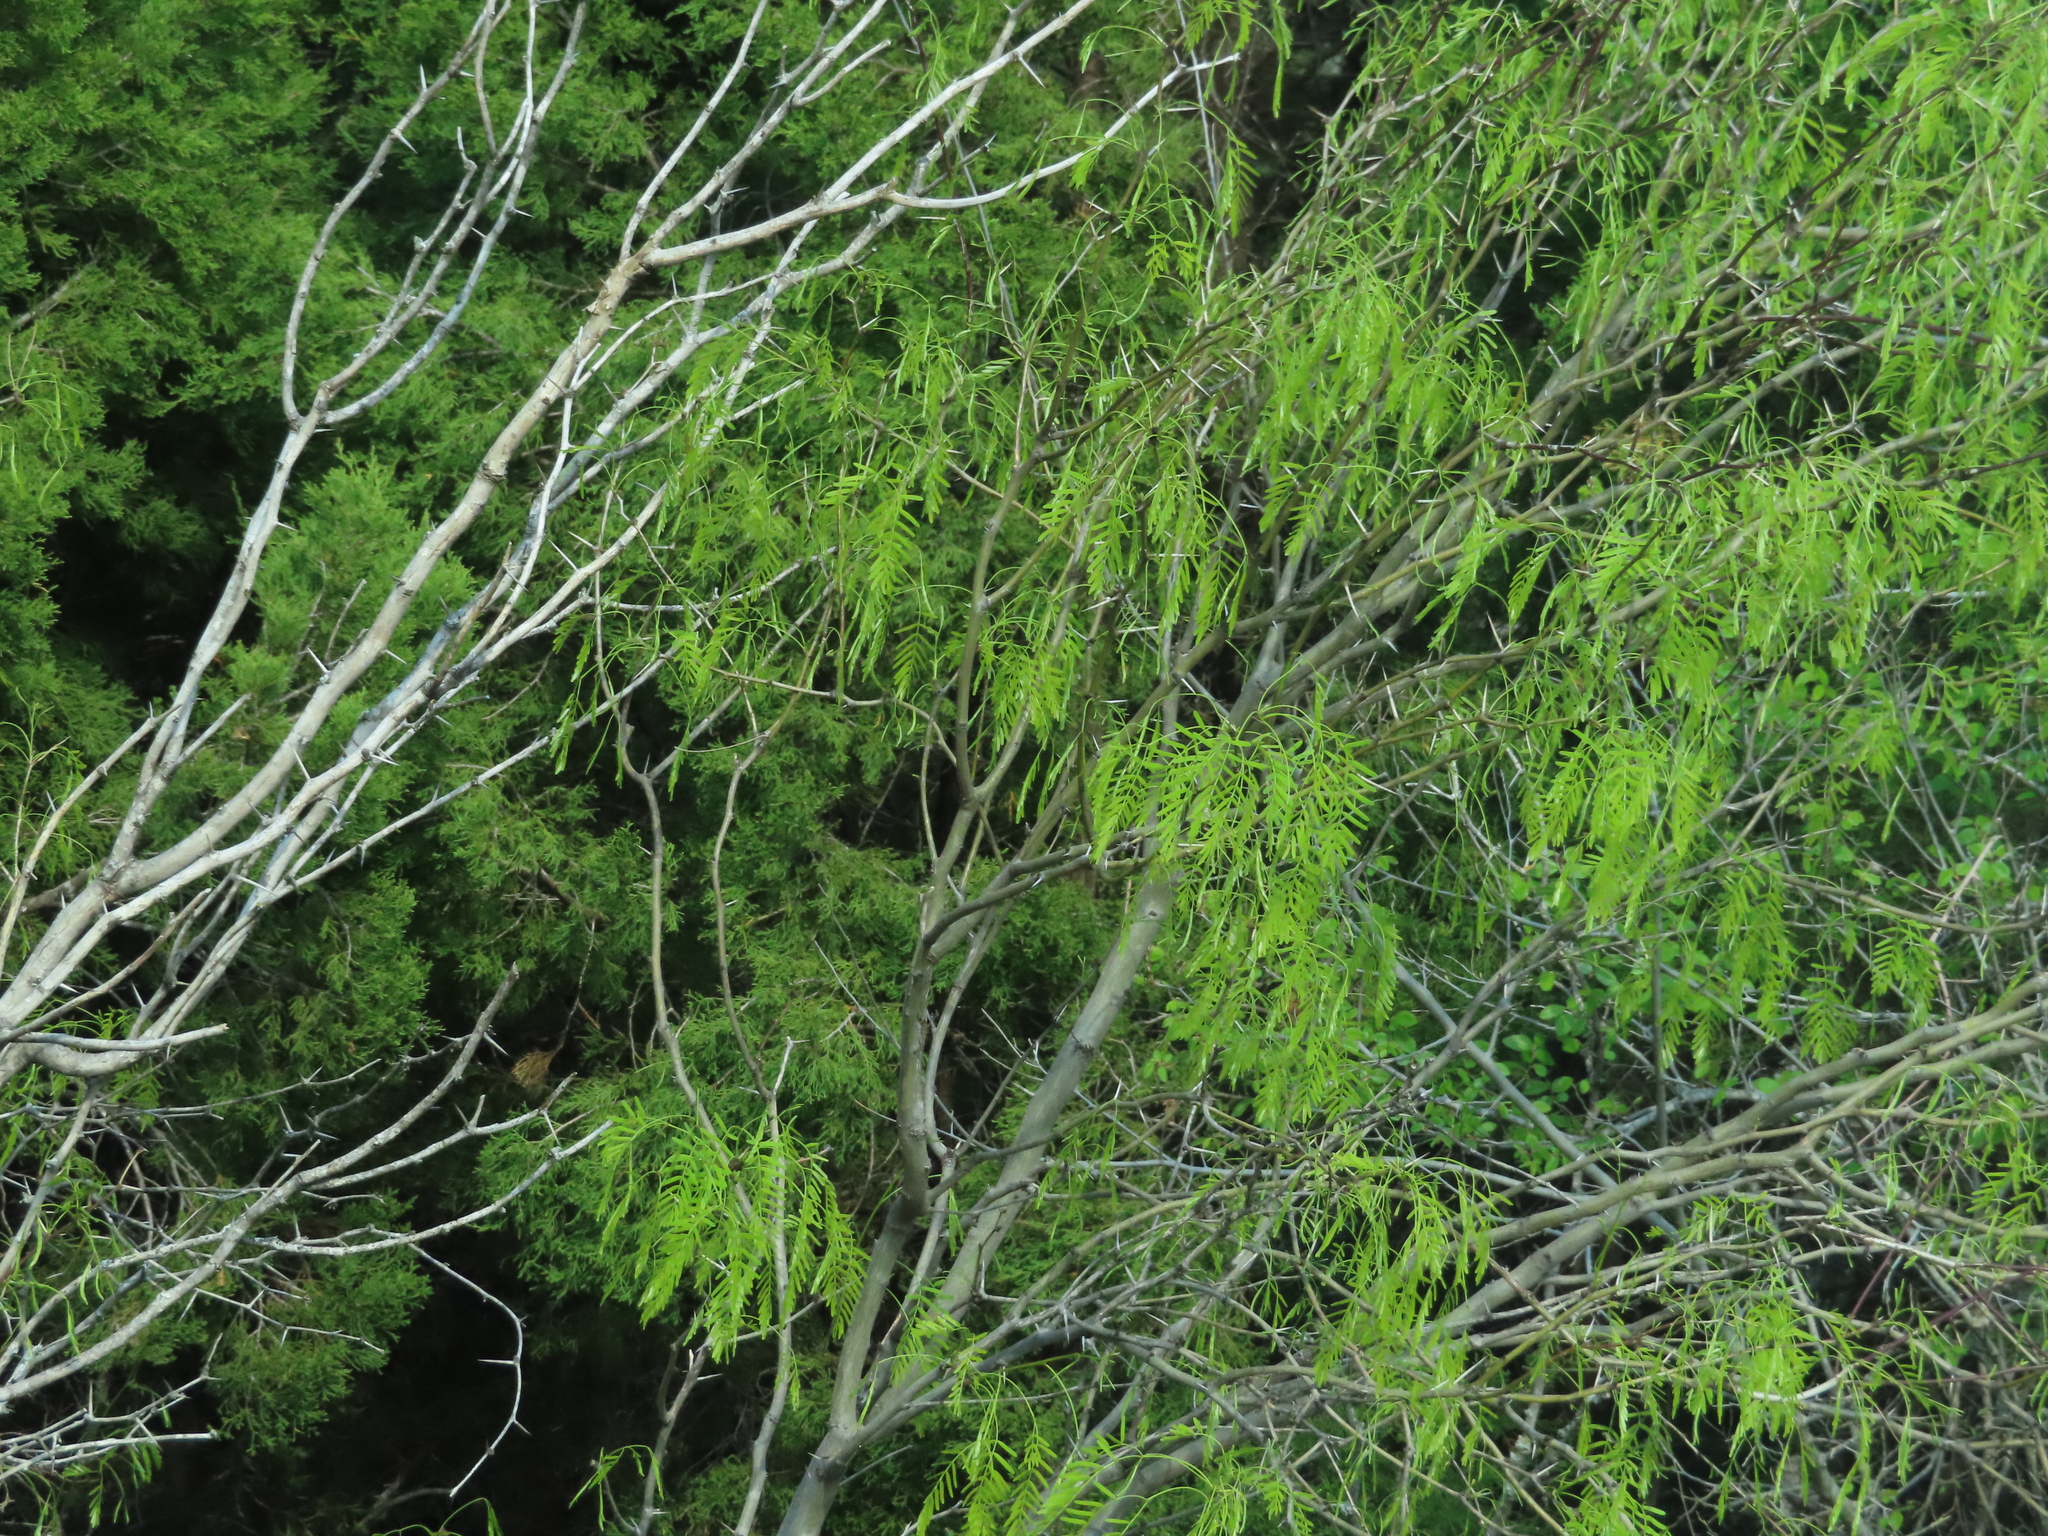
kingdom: Plantae
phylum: Tracheophyta
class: Magnoliopsida
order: Fabales
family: Fabaceae
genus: Prosopis
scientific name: Prosopis glandulosa
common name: Honey mesquite
